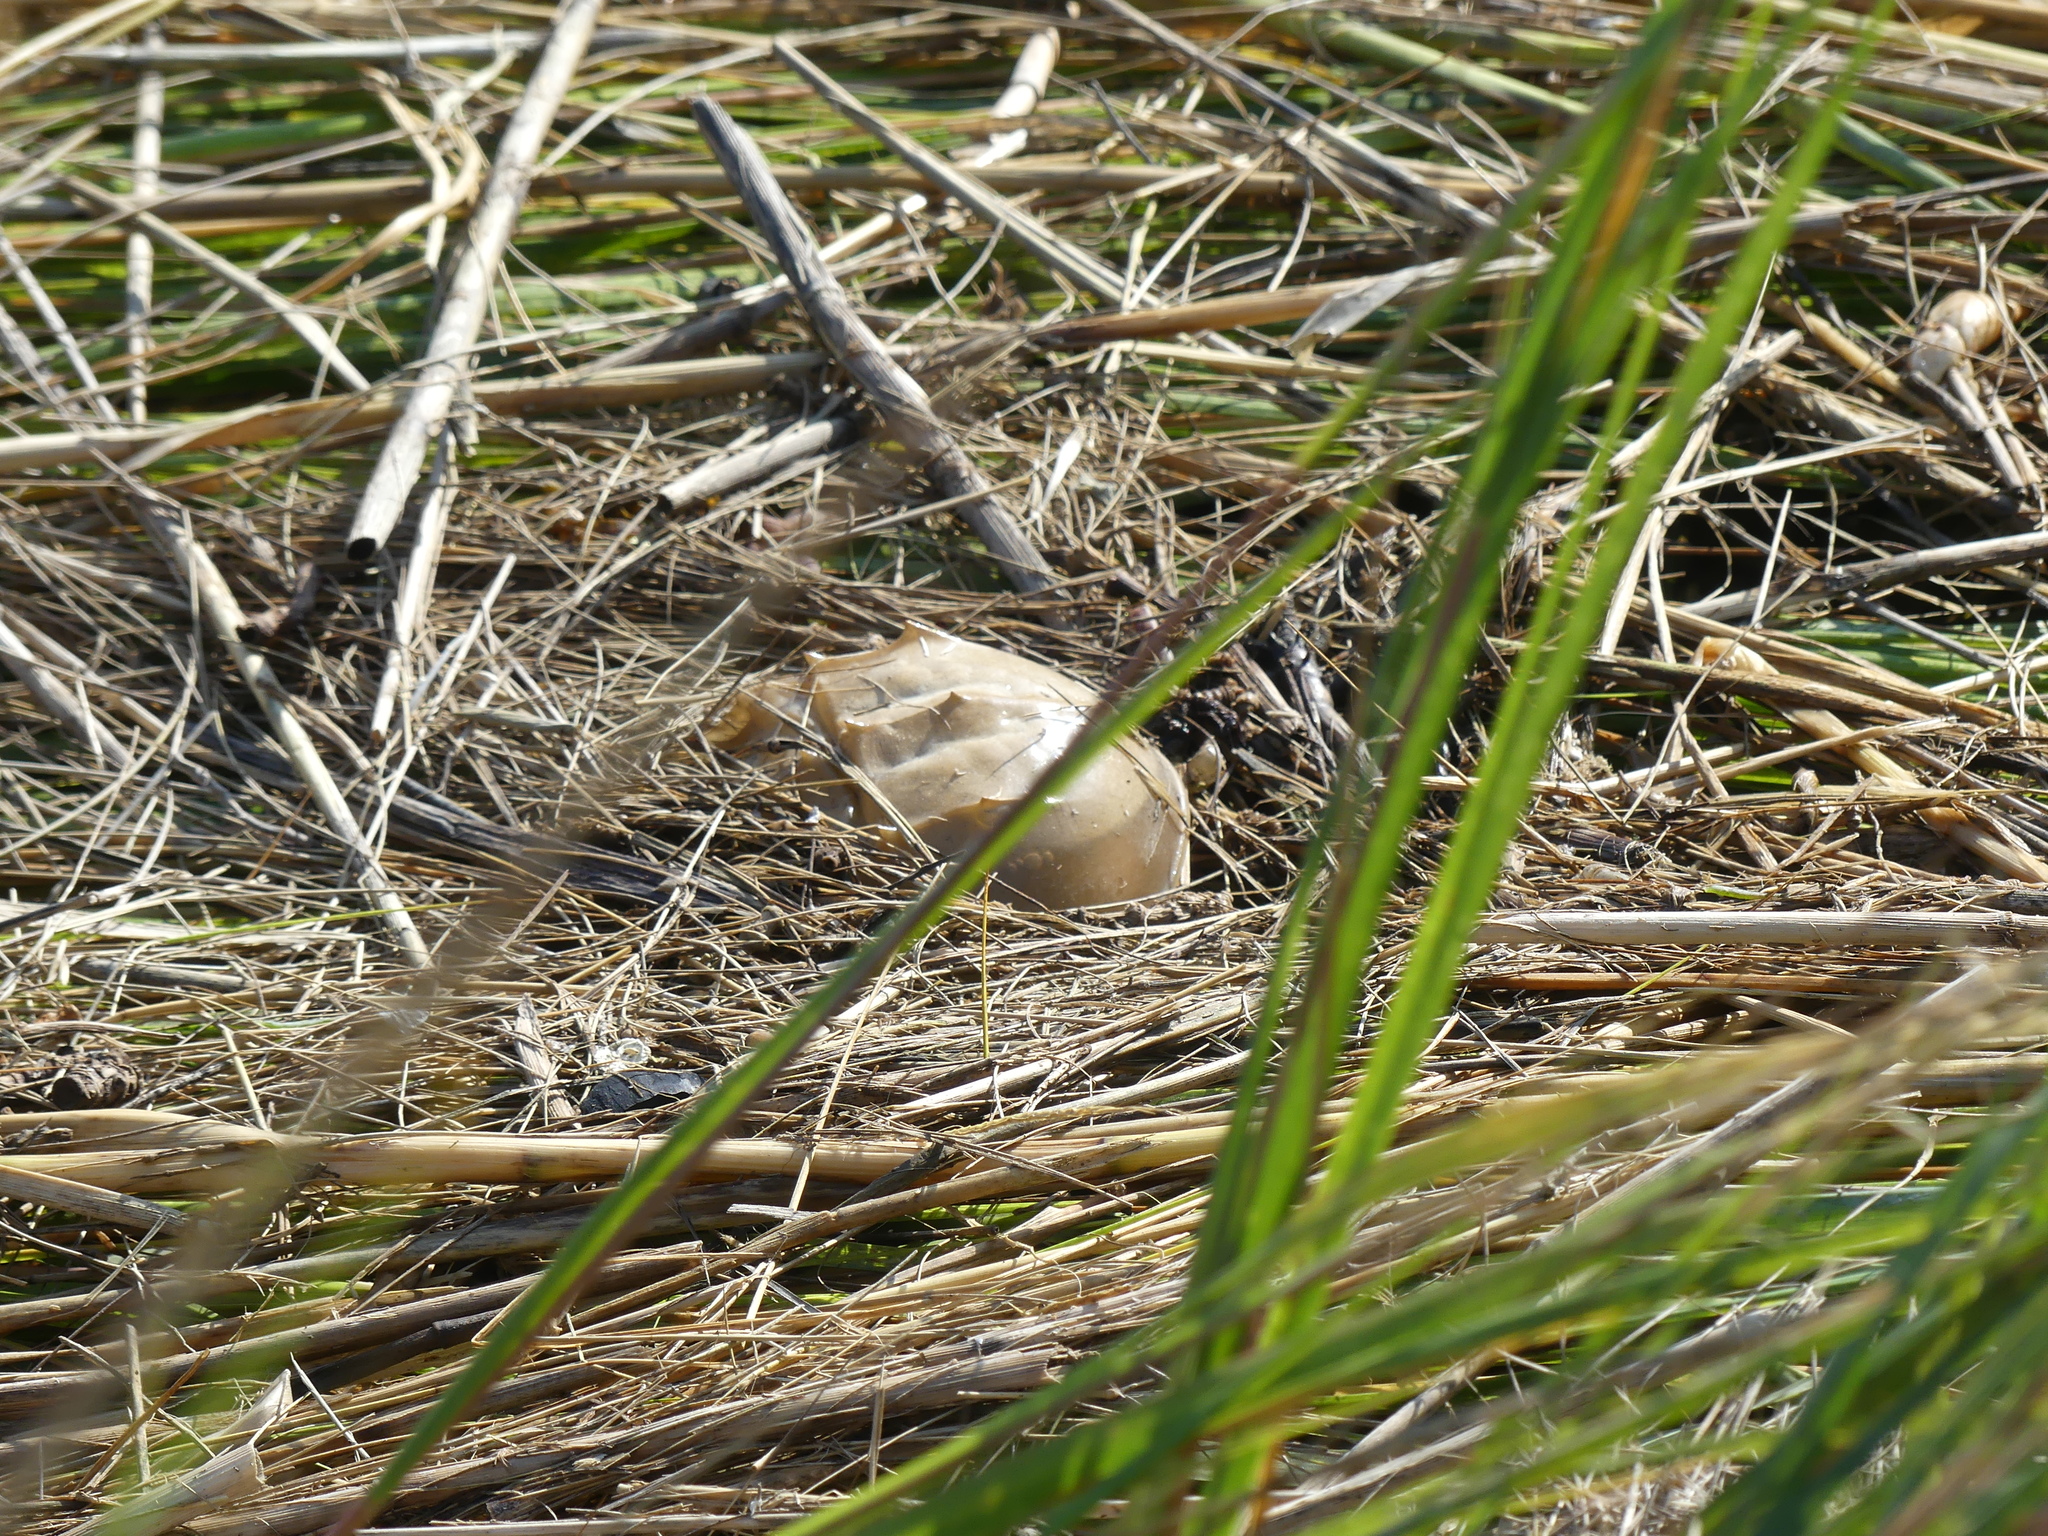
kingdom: Animalia
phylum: Arthropoda
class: Merostomata
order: Xiphosurida
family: Limulidae
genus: Limulus
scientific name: Limulus polyphemus
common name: Horseshoe crab
